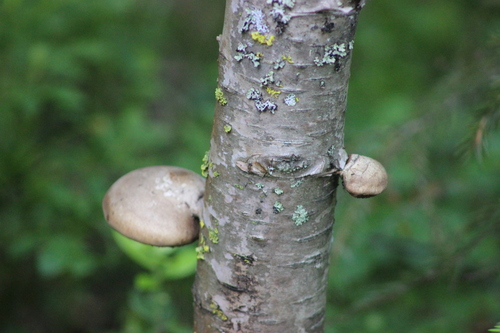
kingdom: Fungi
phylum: Basidiomycota
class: Agaricomycetes
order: Polyporales
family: Fomitopsidaceae
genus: Fomitopsis
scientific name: Fomitopsis betulina
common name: Birch polypore
